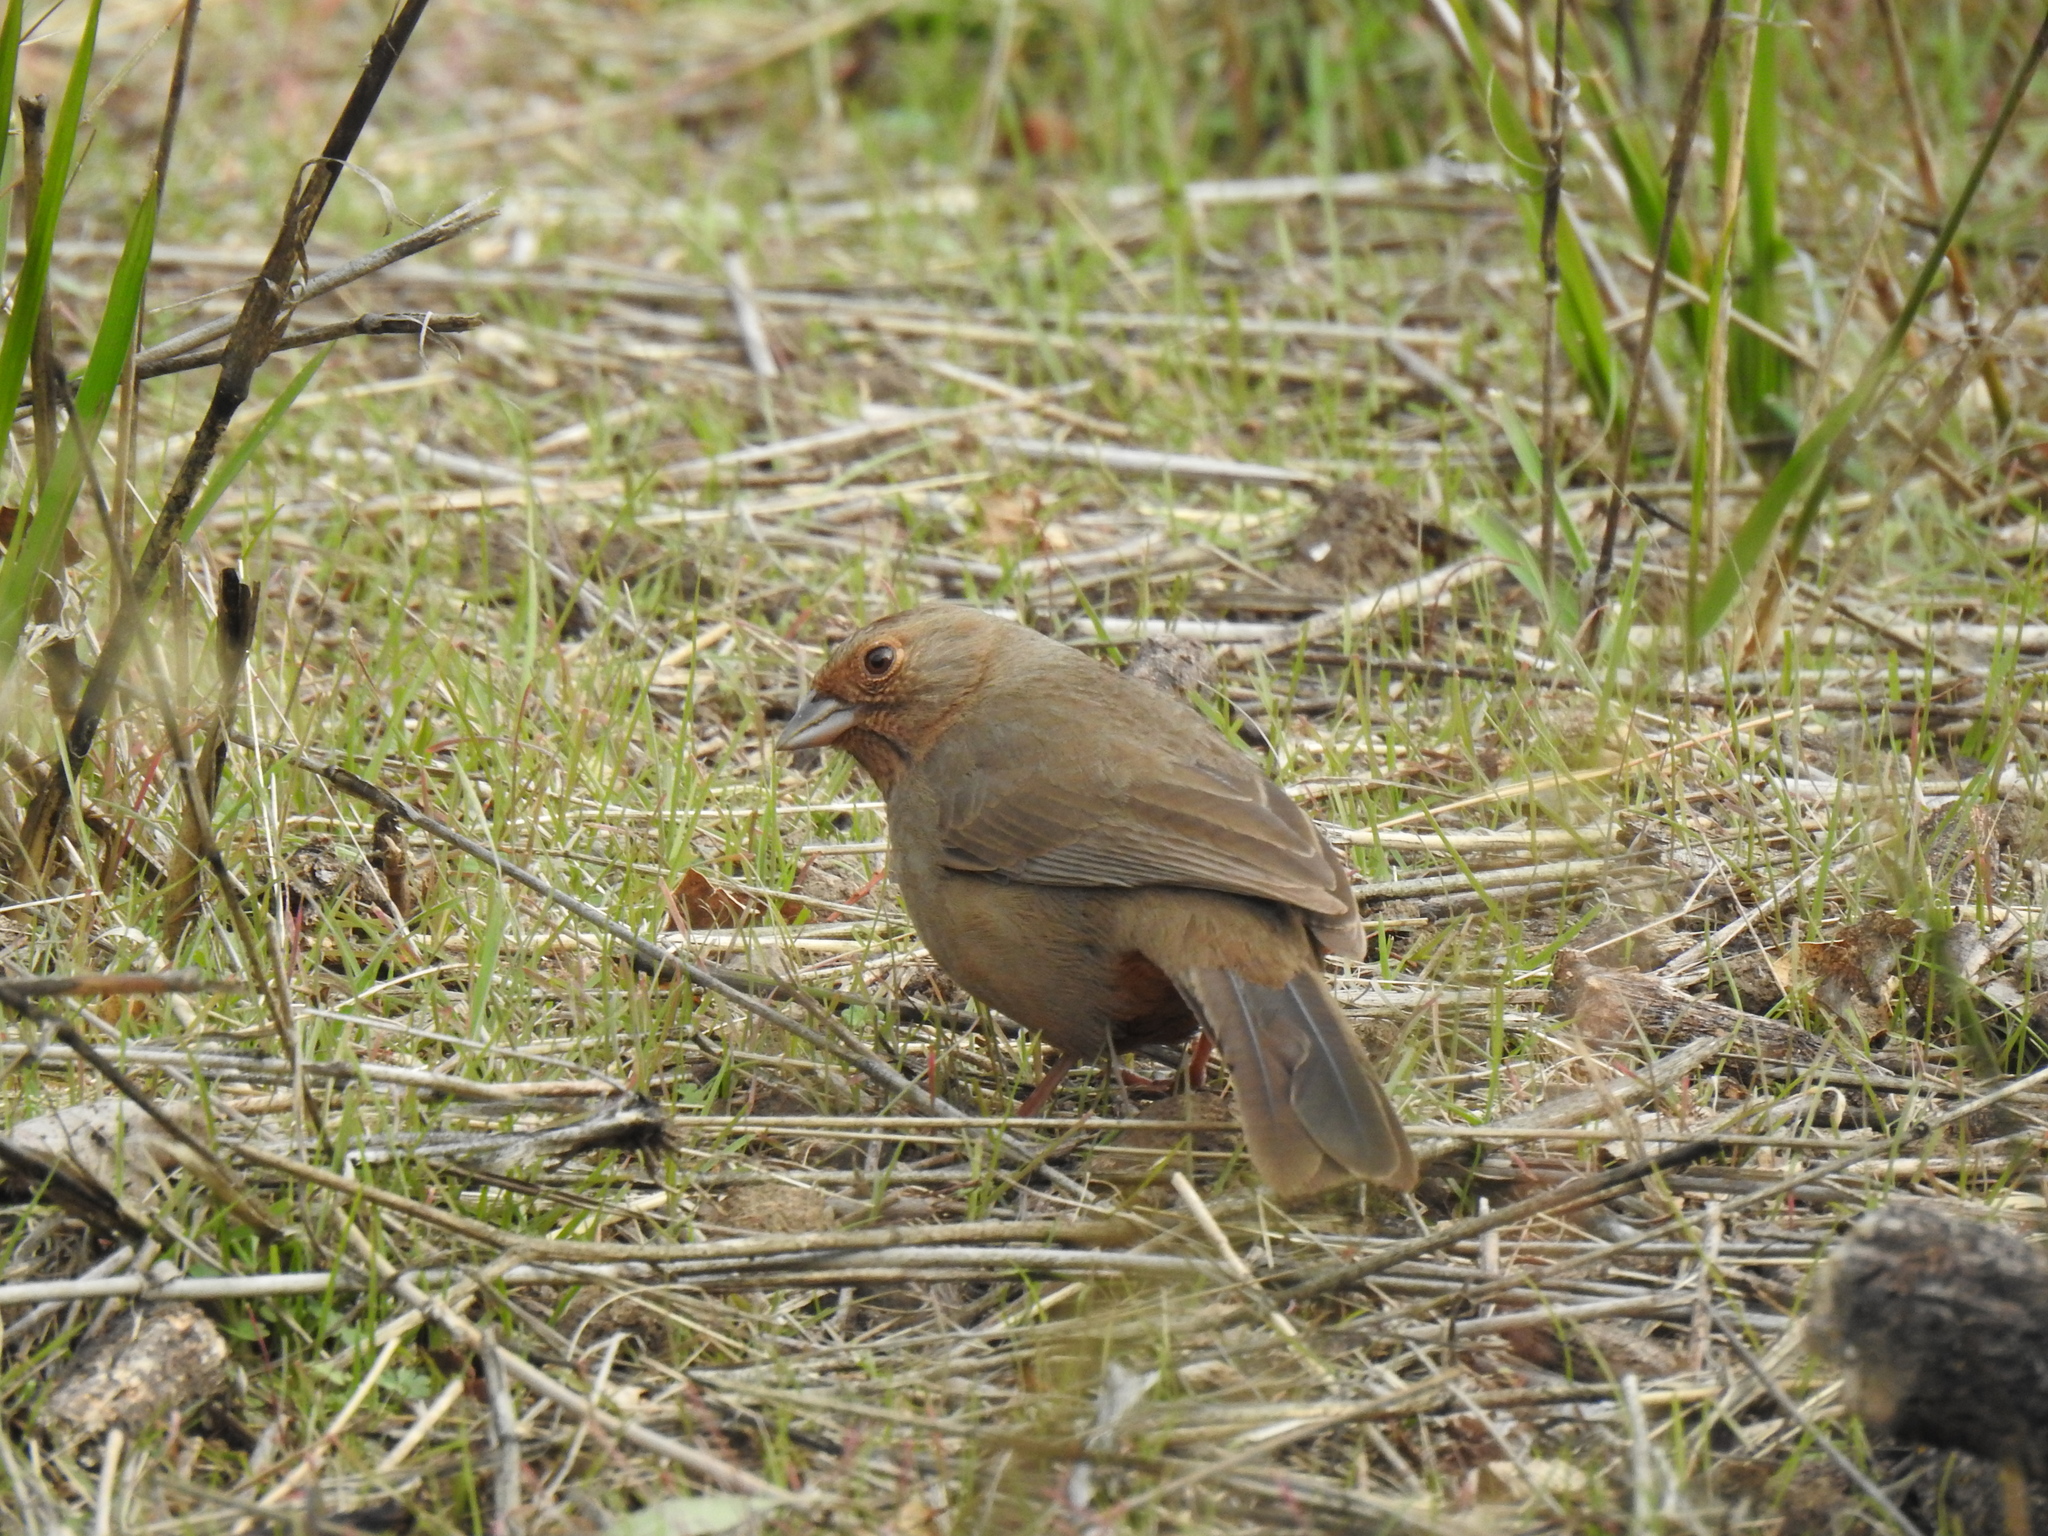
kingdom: Animalia
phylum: Chordata
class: Aves
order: Passeriformes
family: Passerellidae
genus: Melozone
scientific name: Melozone crissalis
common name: California towhee
